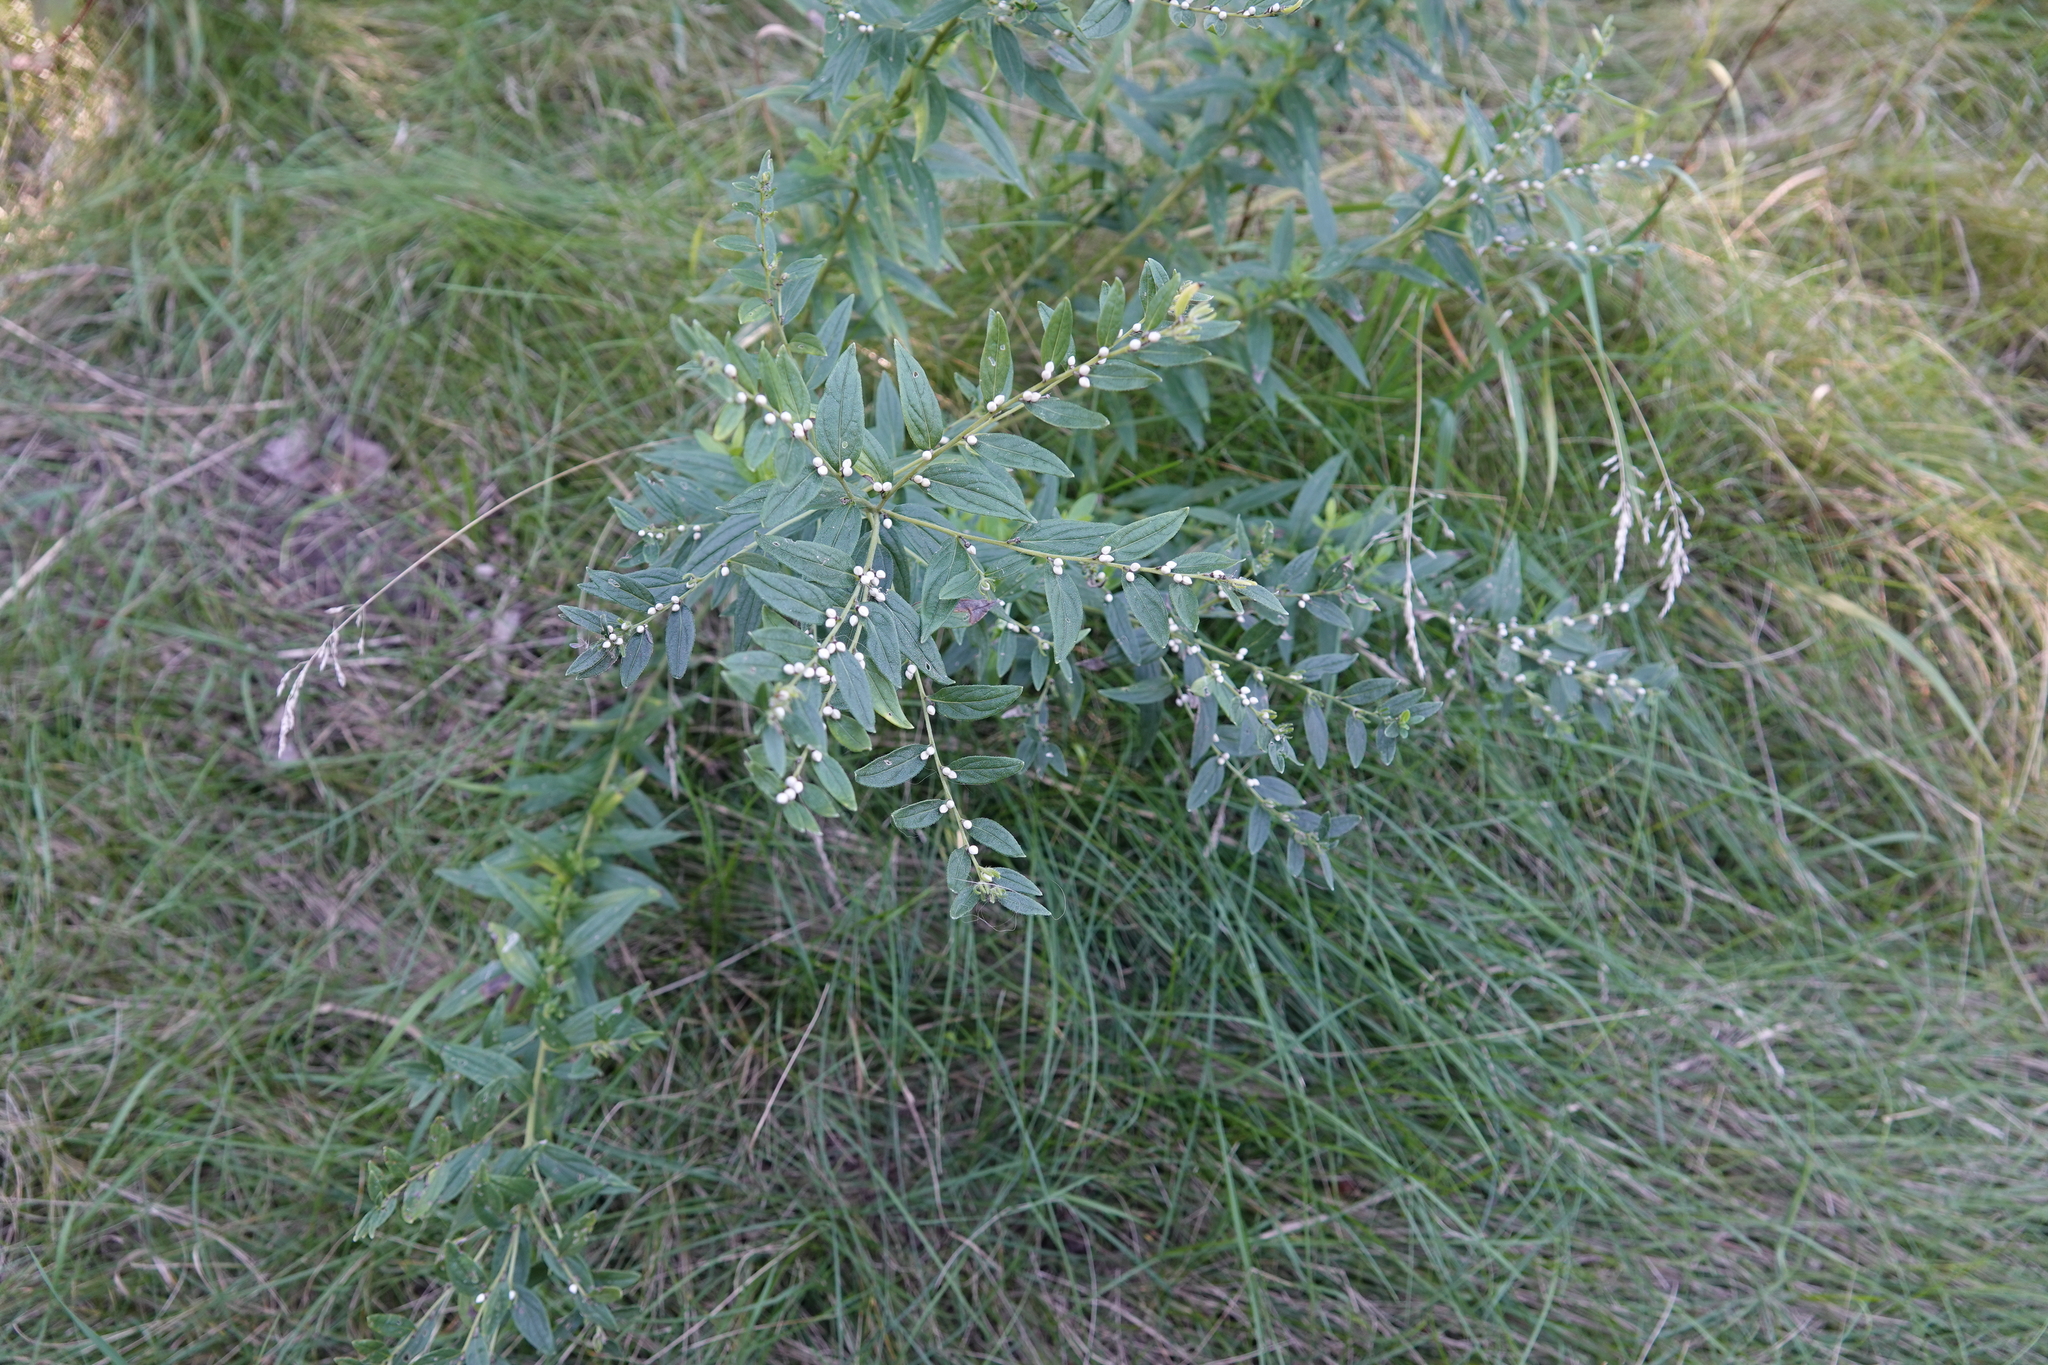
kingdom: Plantae
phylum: Tracheophyta
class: Magnoliopsida
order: Boraginales
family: Boraginaceae
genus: Lithospermum
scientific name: Lithospermum officinale
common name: Common gromwell
